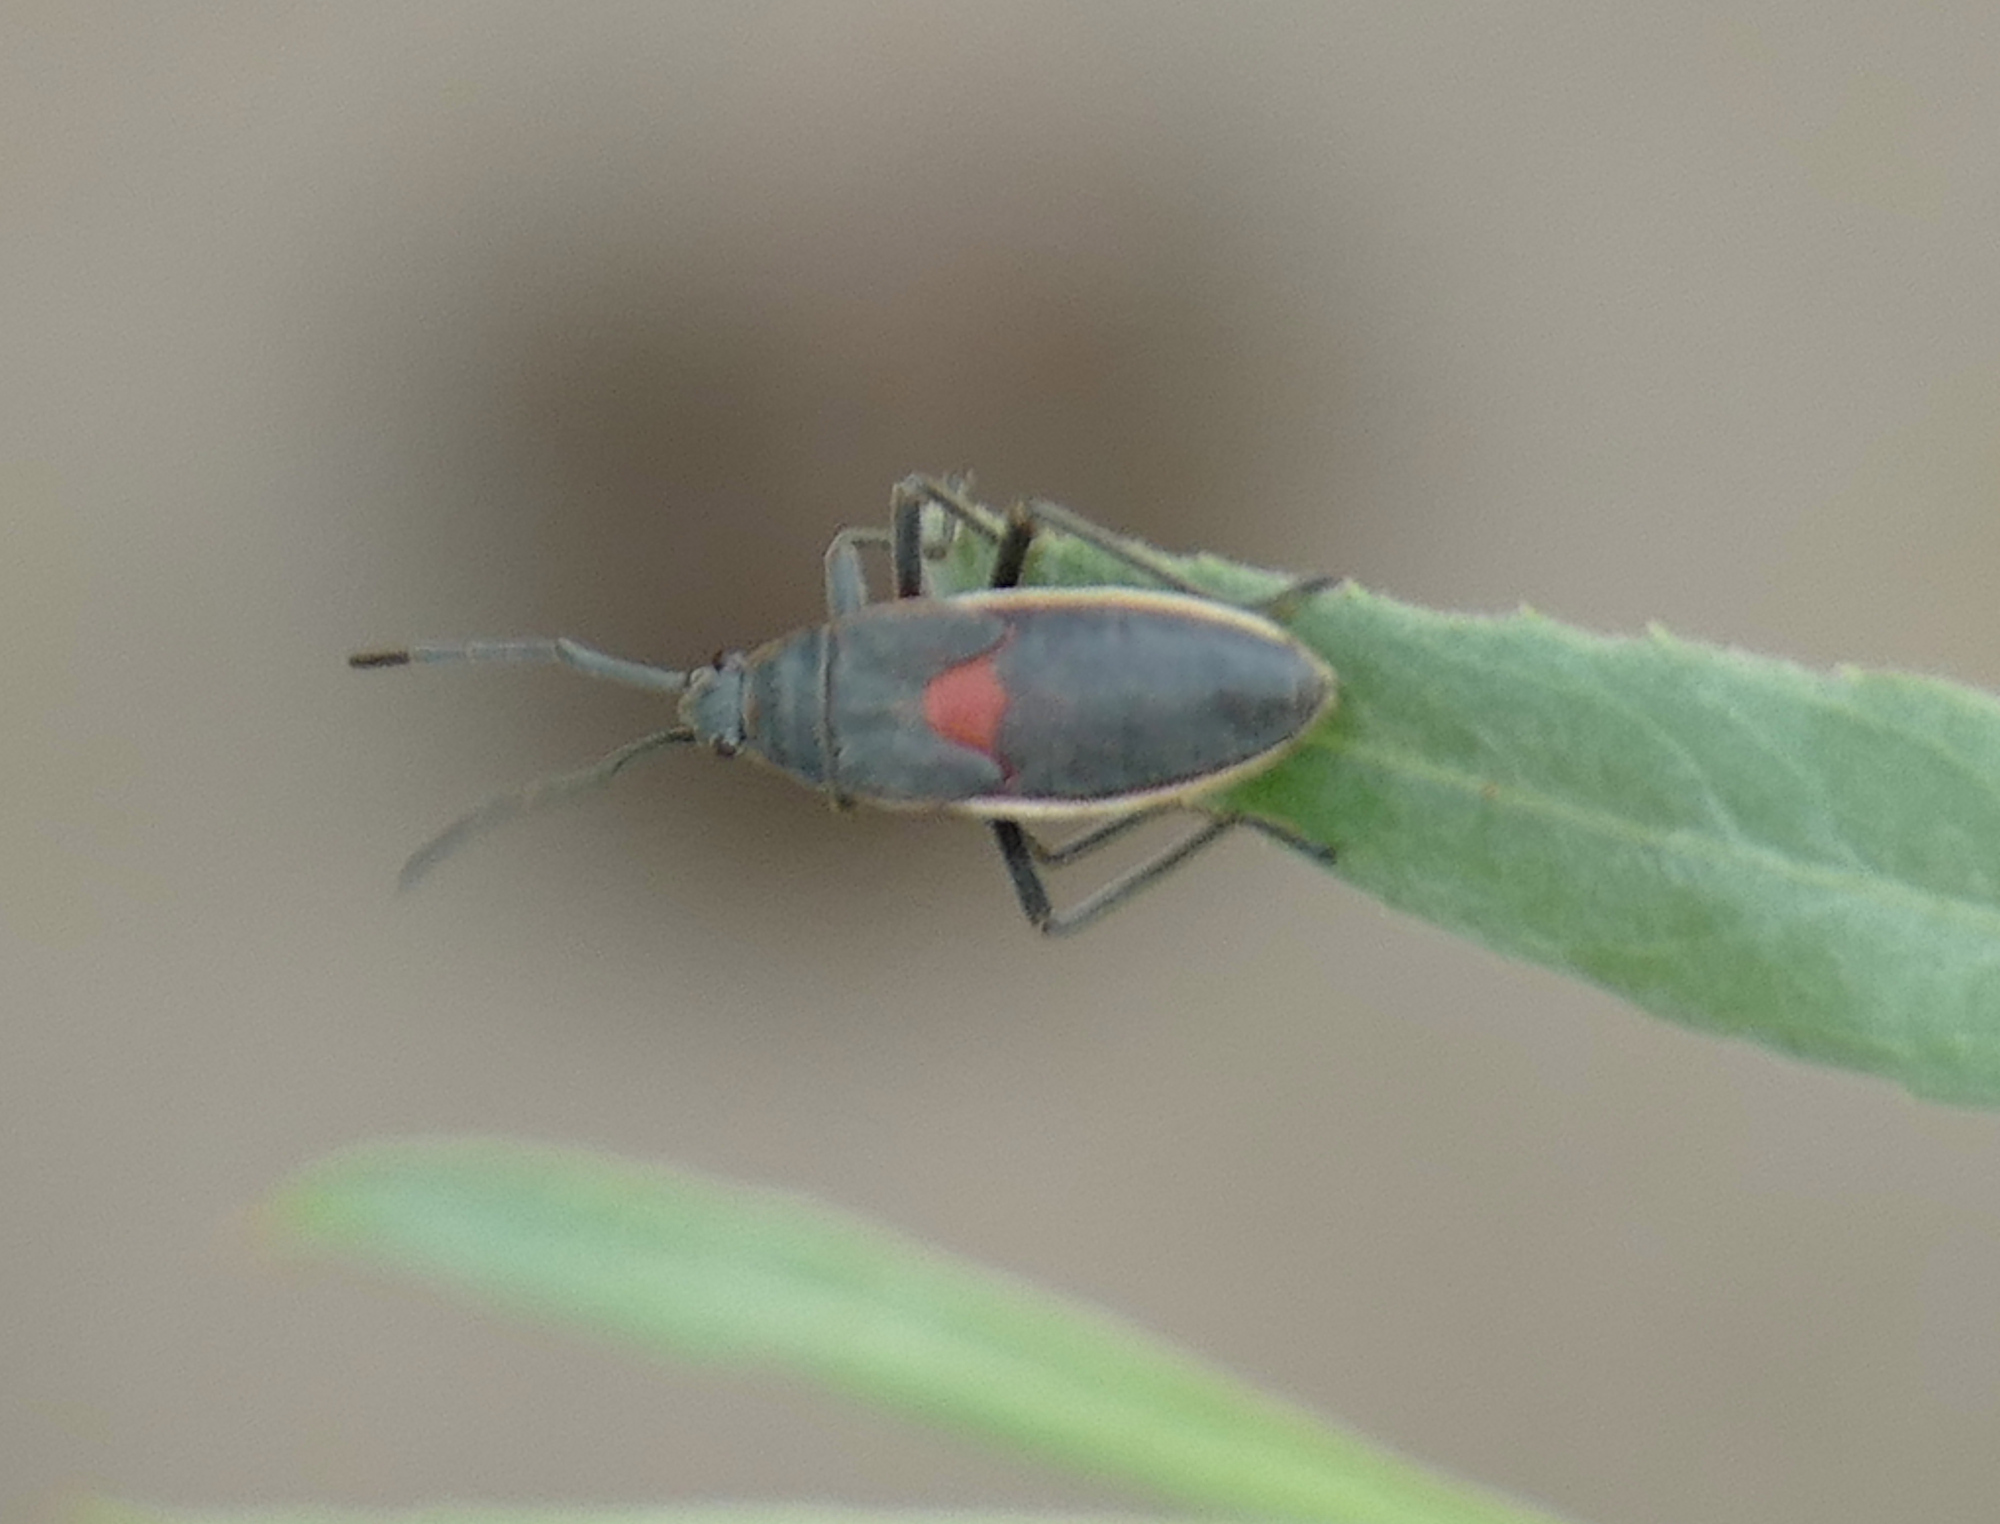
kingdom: Animalia
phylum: Arthropoda
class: Insecta
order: Hemiptera
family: Largidae
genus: Stenomacra
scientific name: Stenomacra marginella
